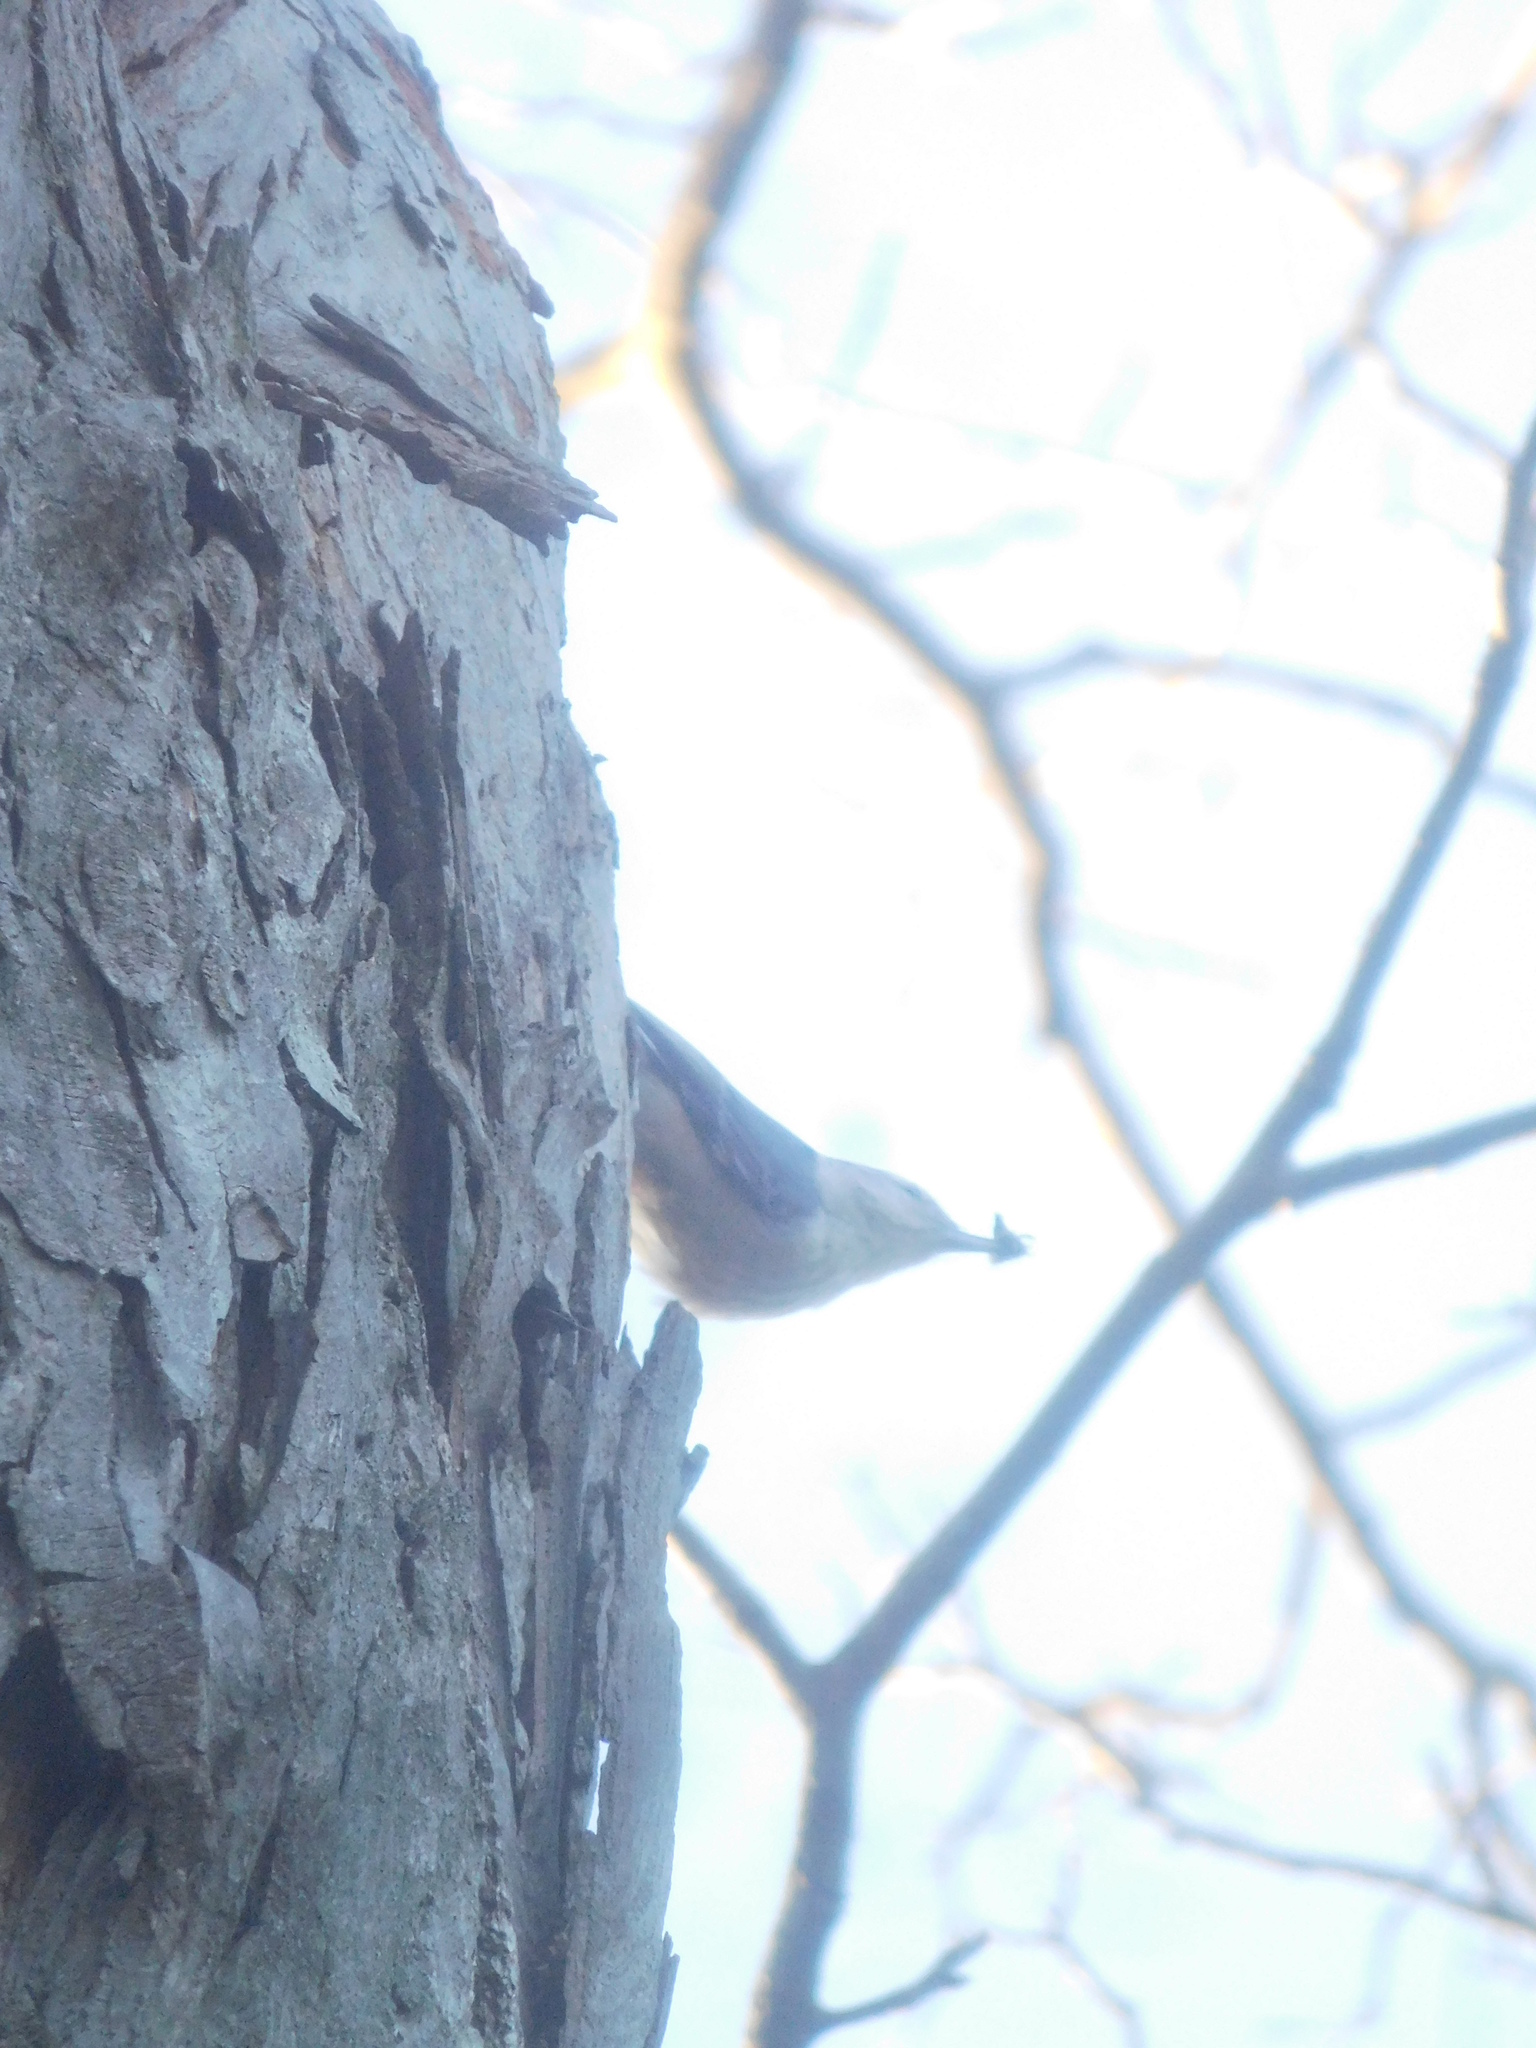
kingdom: Animalia
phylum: Chordata
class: Aves
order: Passeriformes
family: Sittidae
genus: Sitta
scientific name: Sitta canadensis
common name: Red-breasted nuthatch
